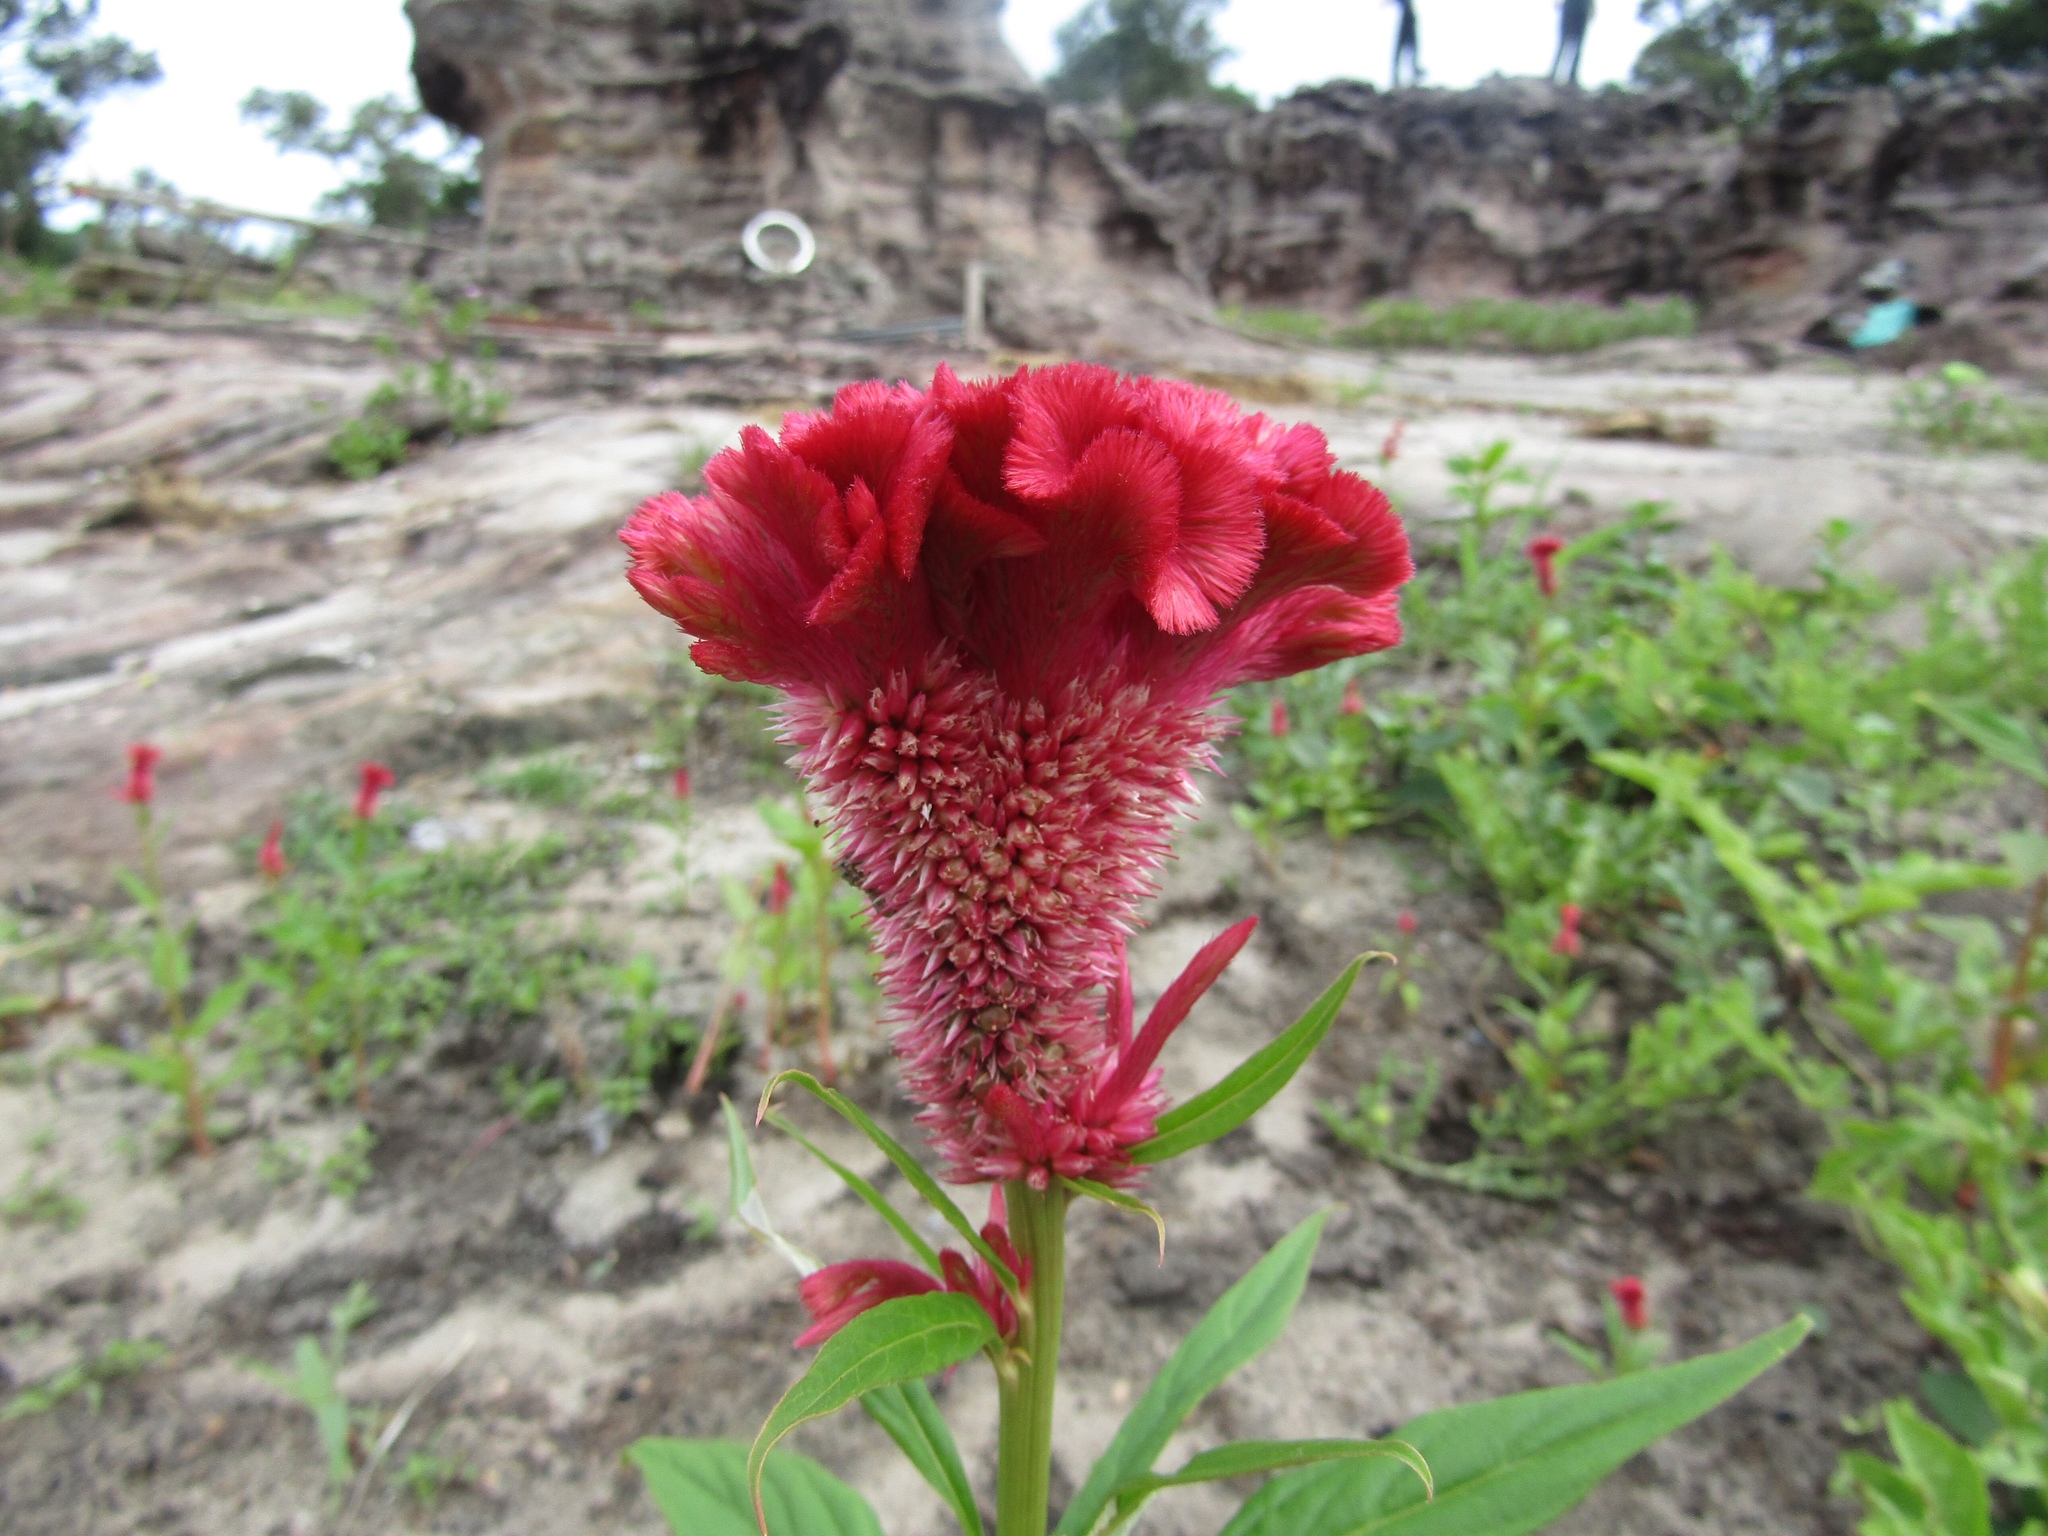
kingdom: Plantae
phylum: Tracheophyta
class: Magnoliopsida
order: Caryophyllales
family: Amaranthaceae
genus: Celosia
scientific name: Celosia argentea
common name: Feather cockscomb
